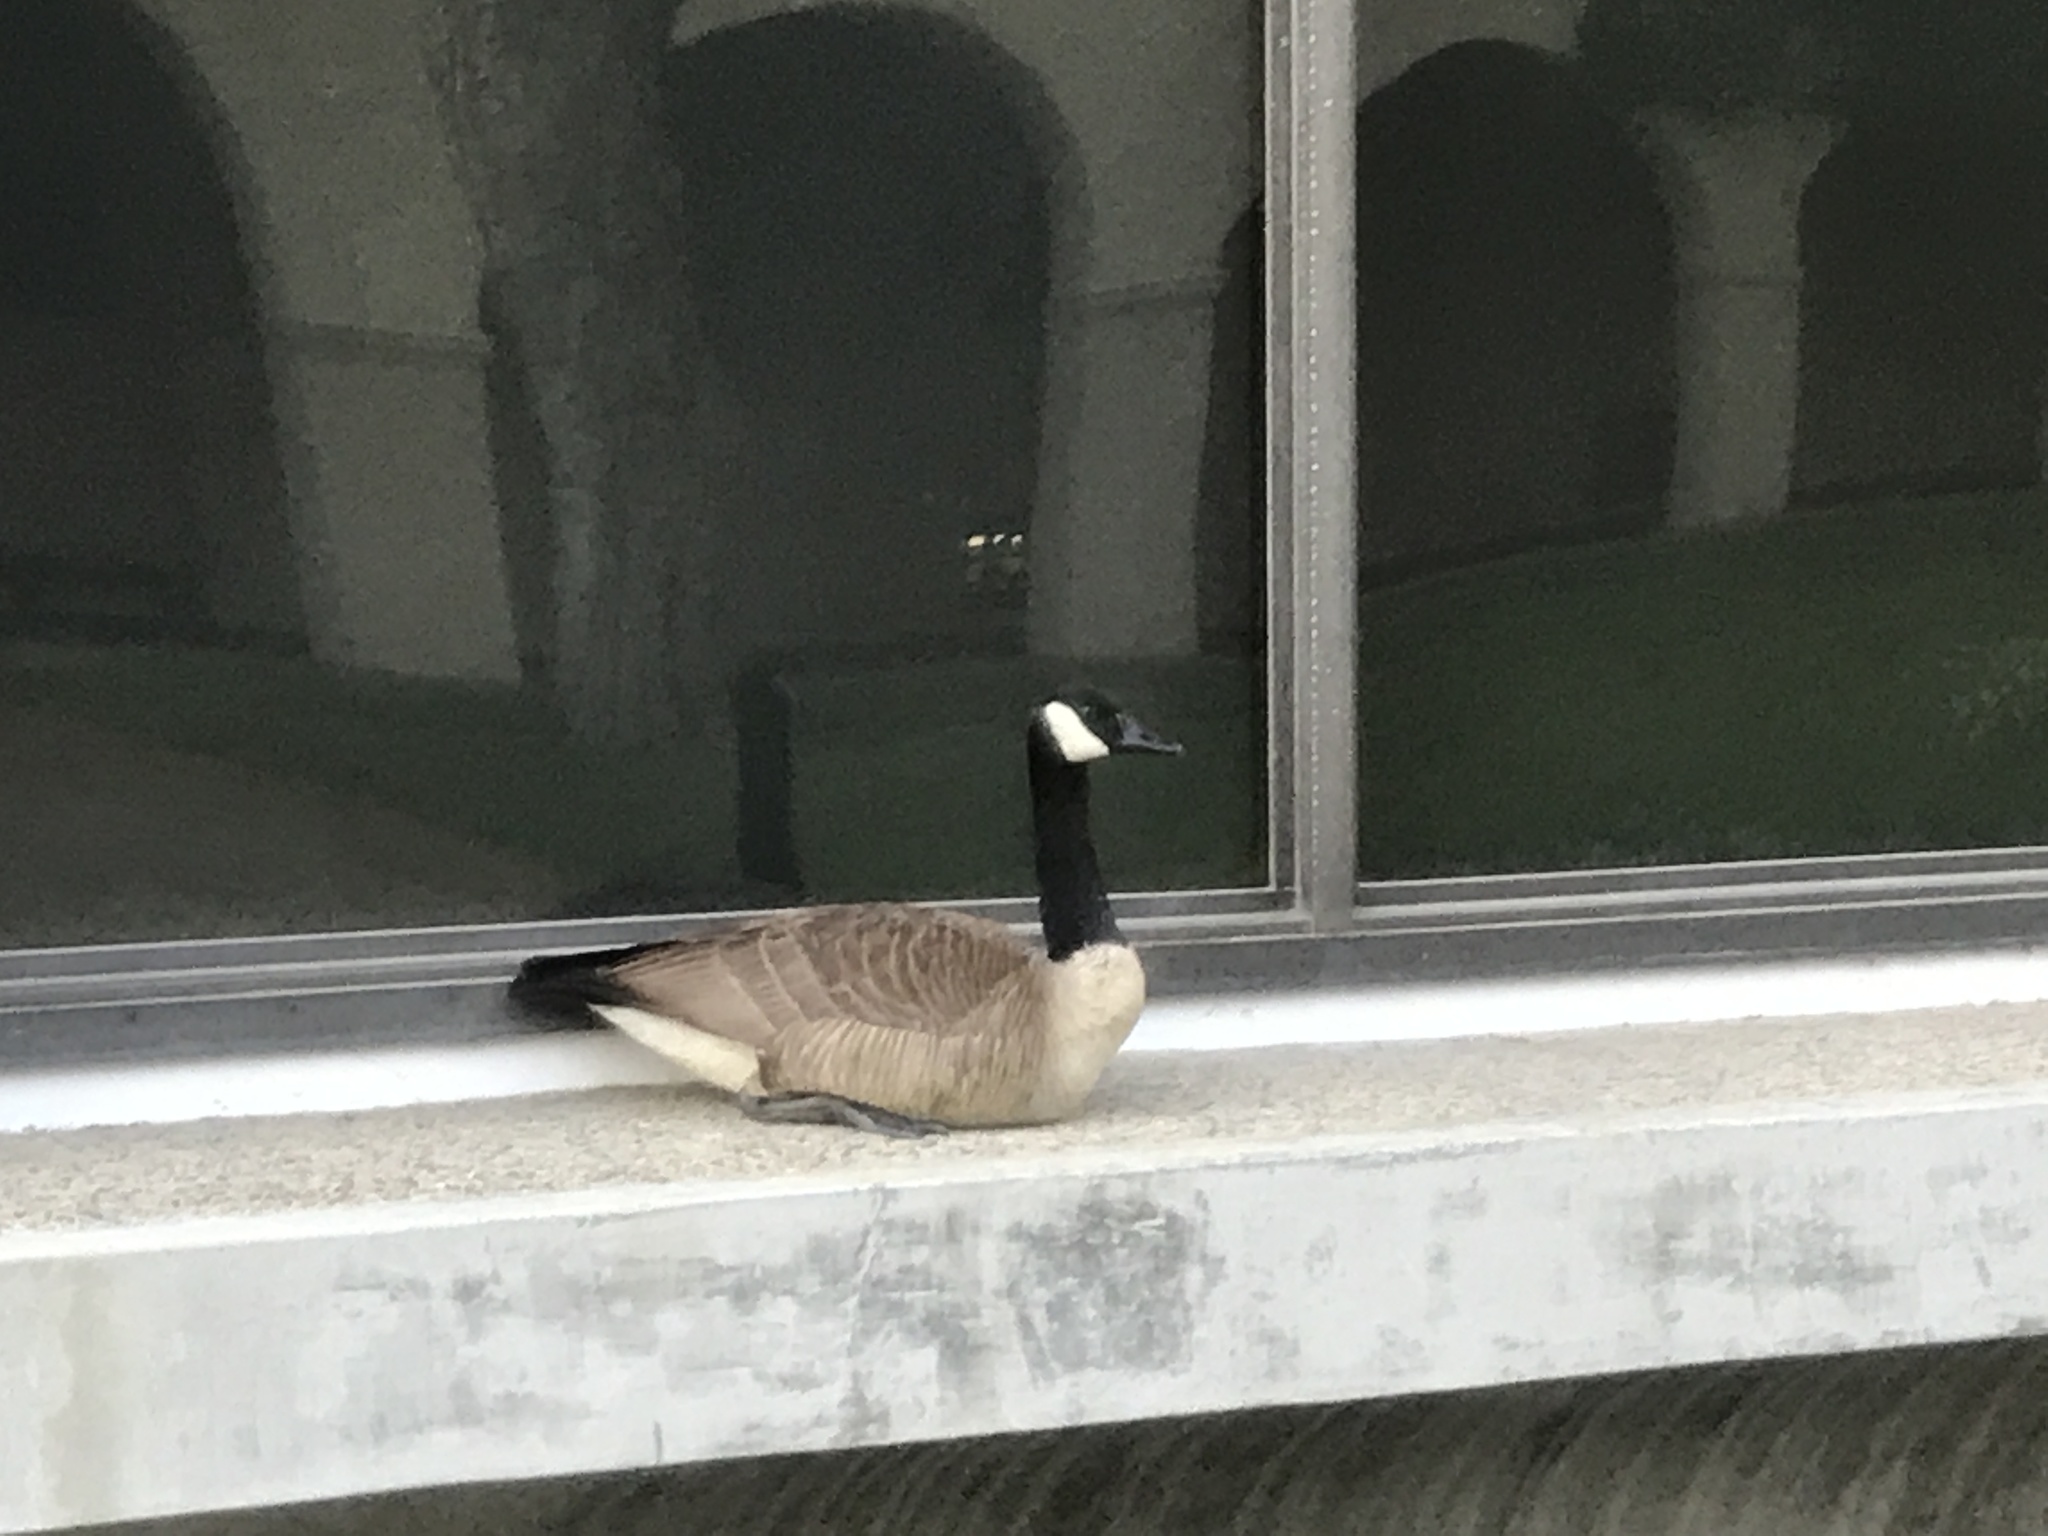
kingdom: Animalia
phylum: Chordata
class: Aves
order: Anseriformes
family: Anatidae
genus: Branta
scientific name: Branta canadensis
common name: Canada goose
